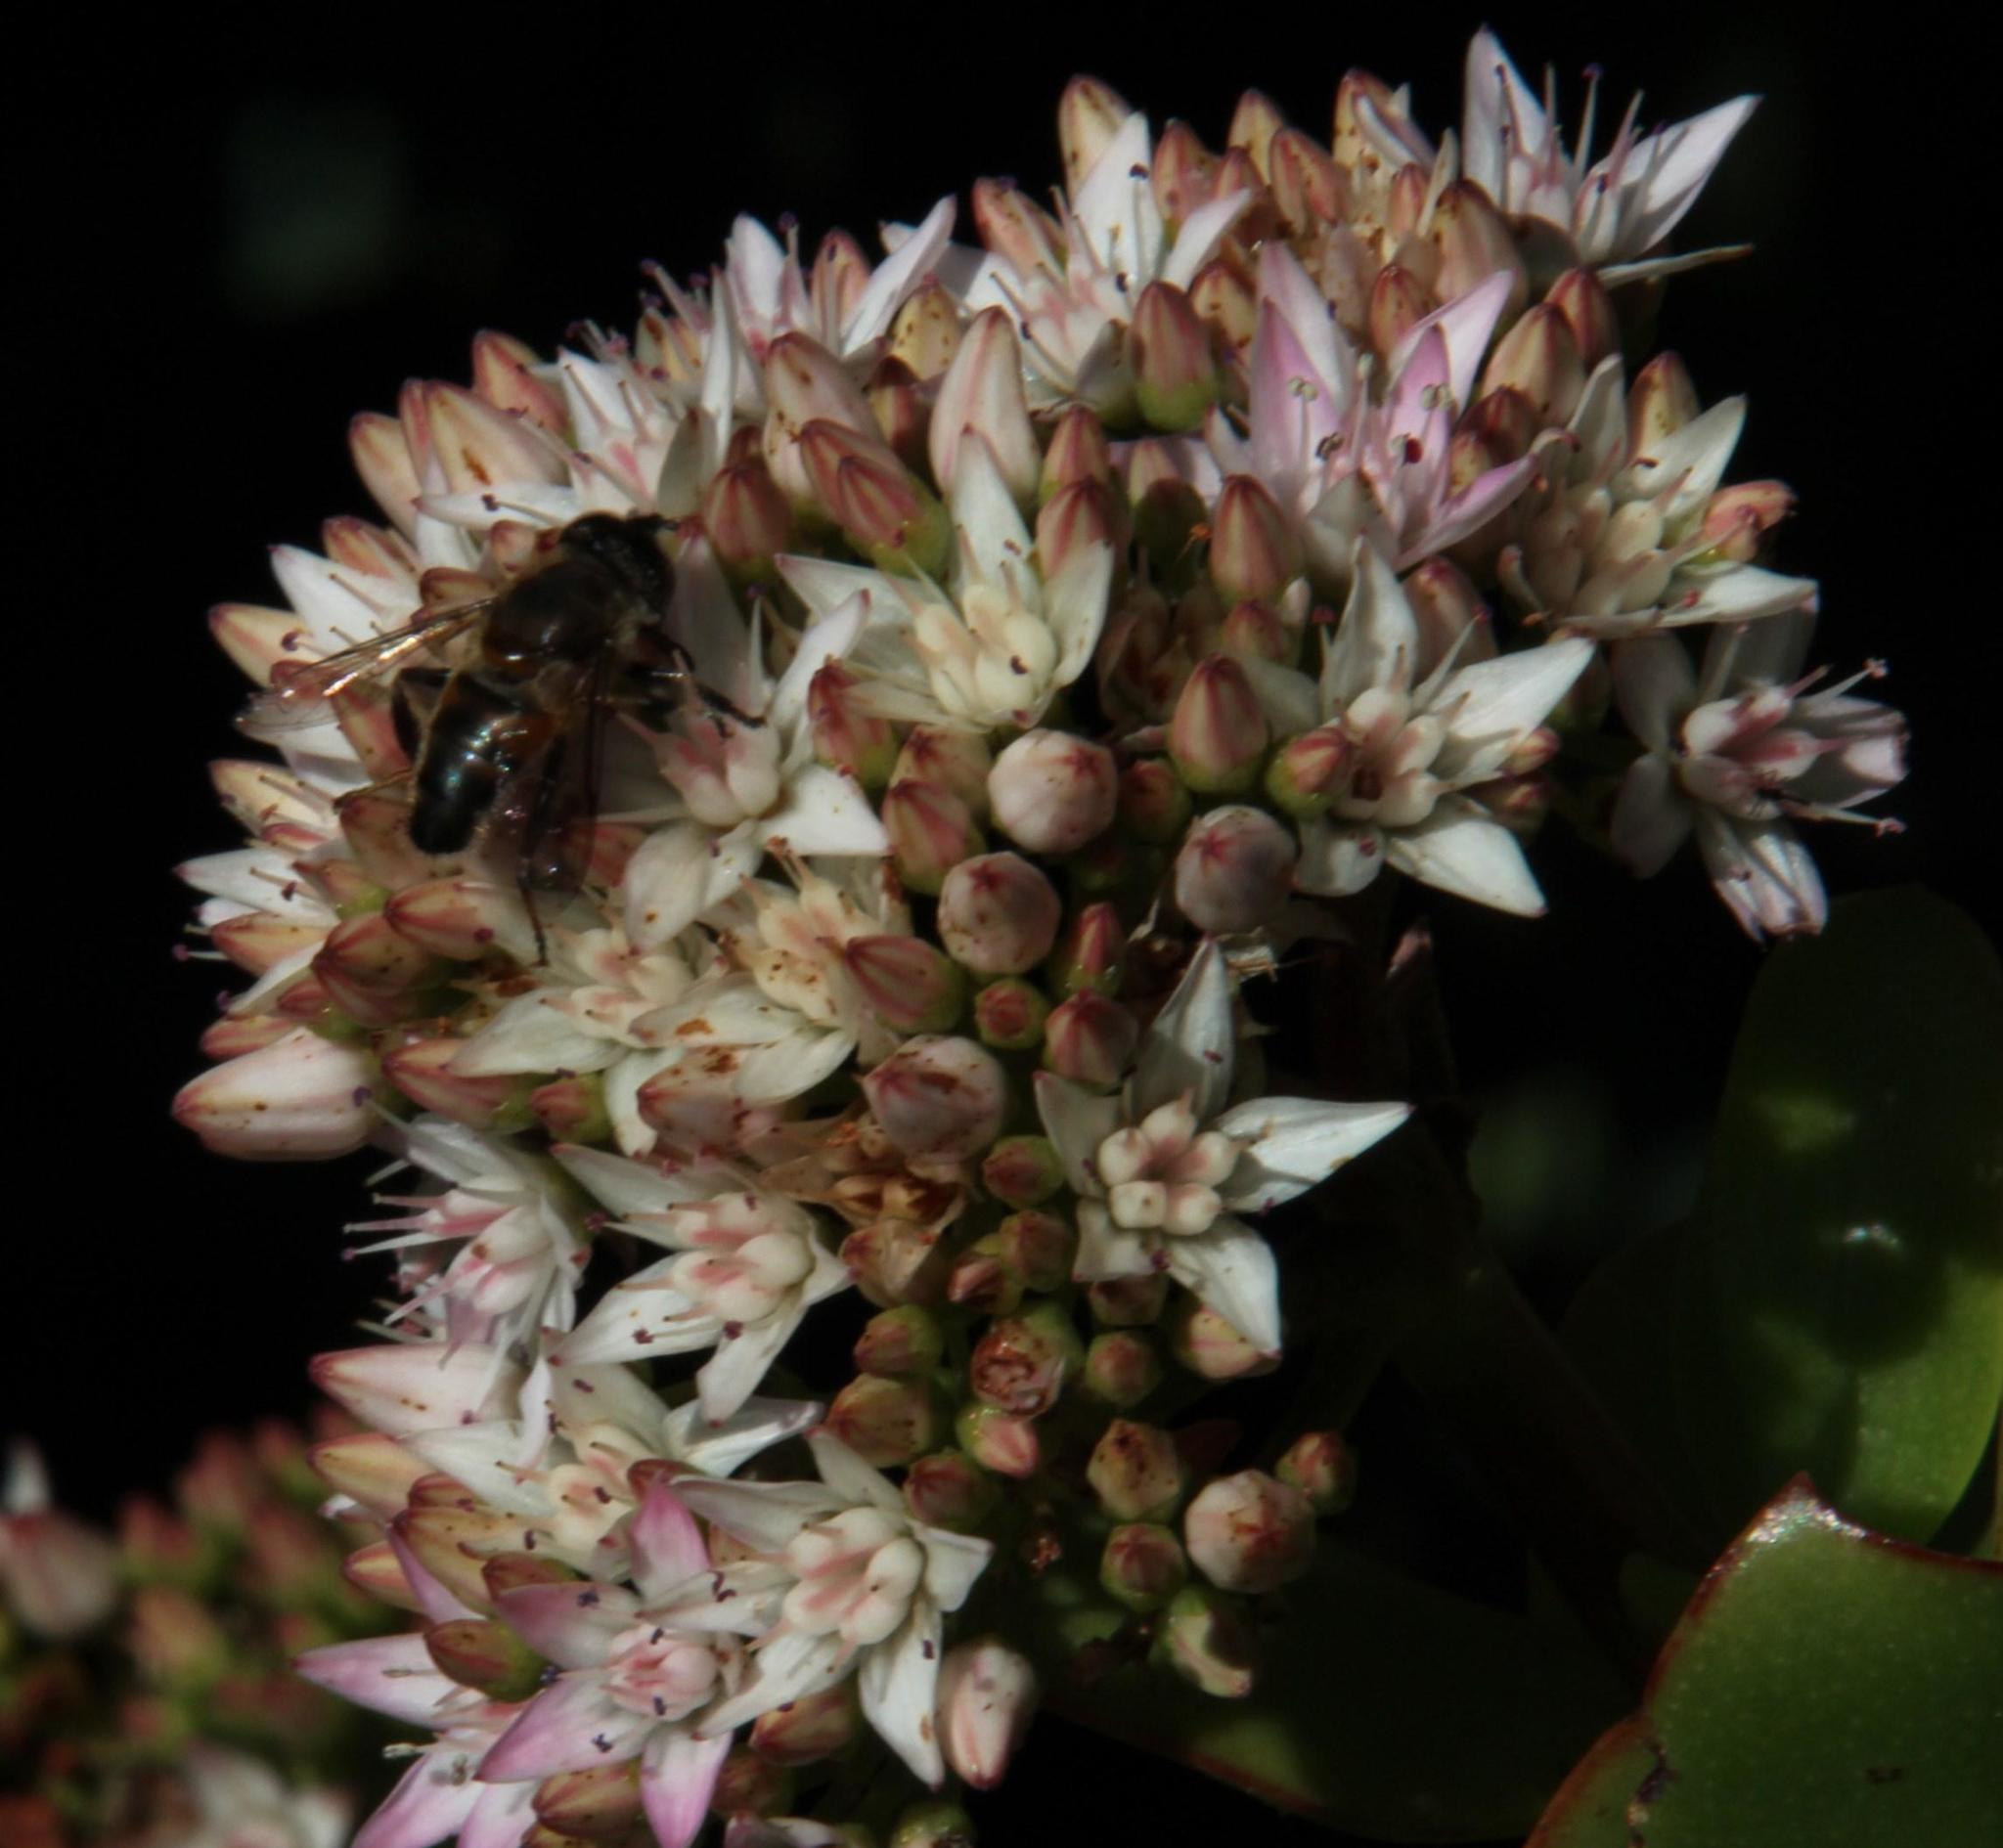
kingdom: Plantae
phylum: Tracheophyta
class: Magnoliopsida
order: Saxifragales
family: Crassulaceae
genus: Crassula
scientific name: Crassula ovata
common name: Jade plant
